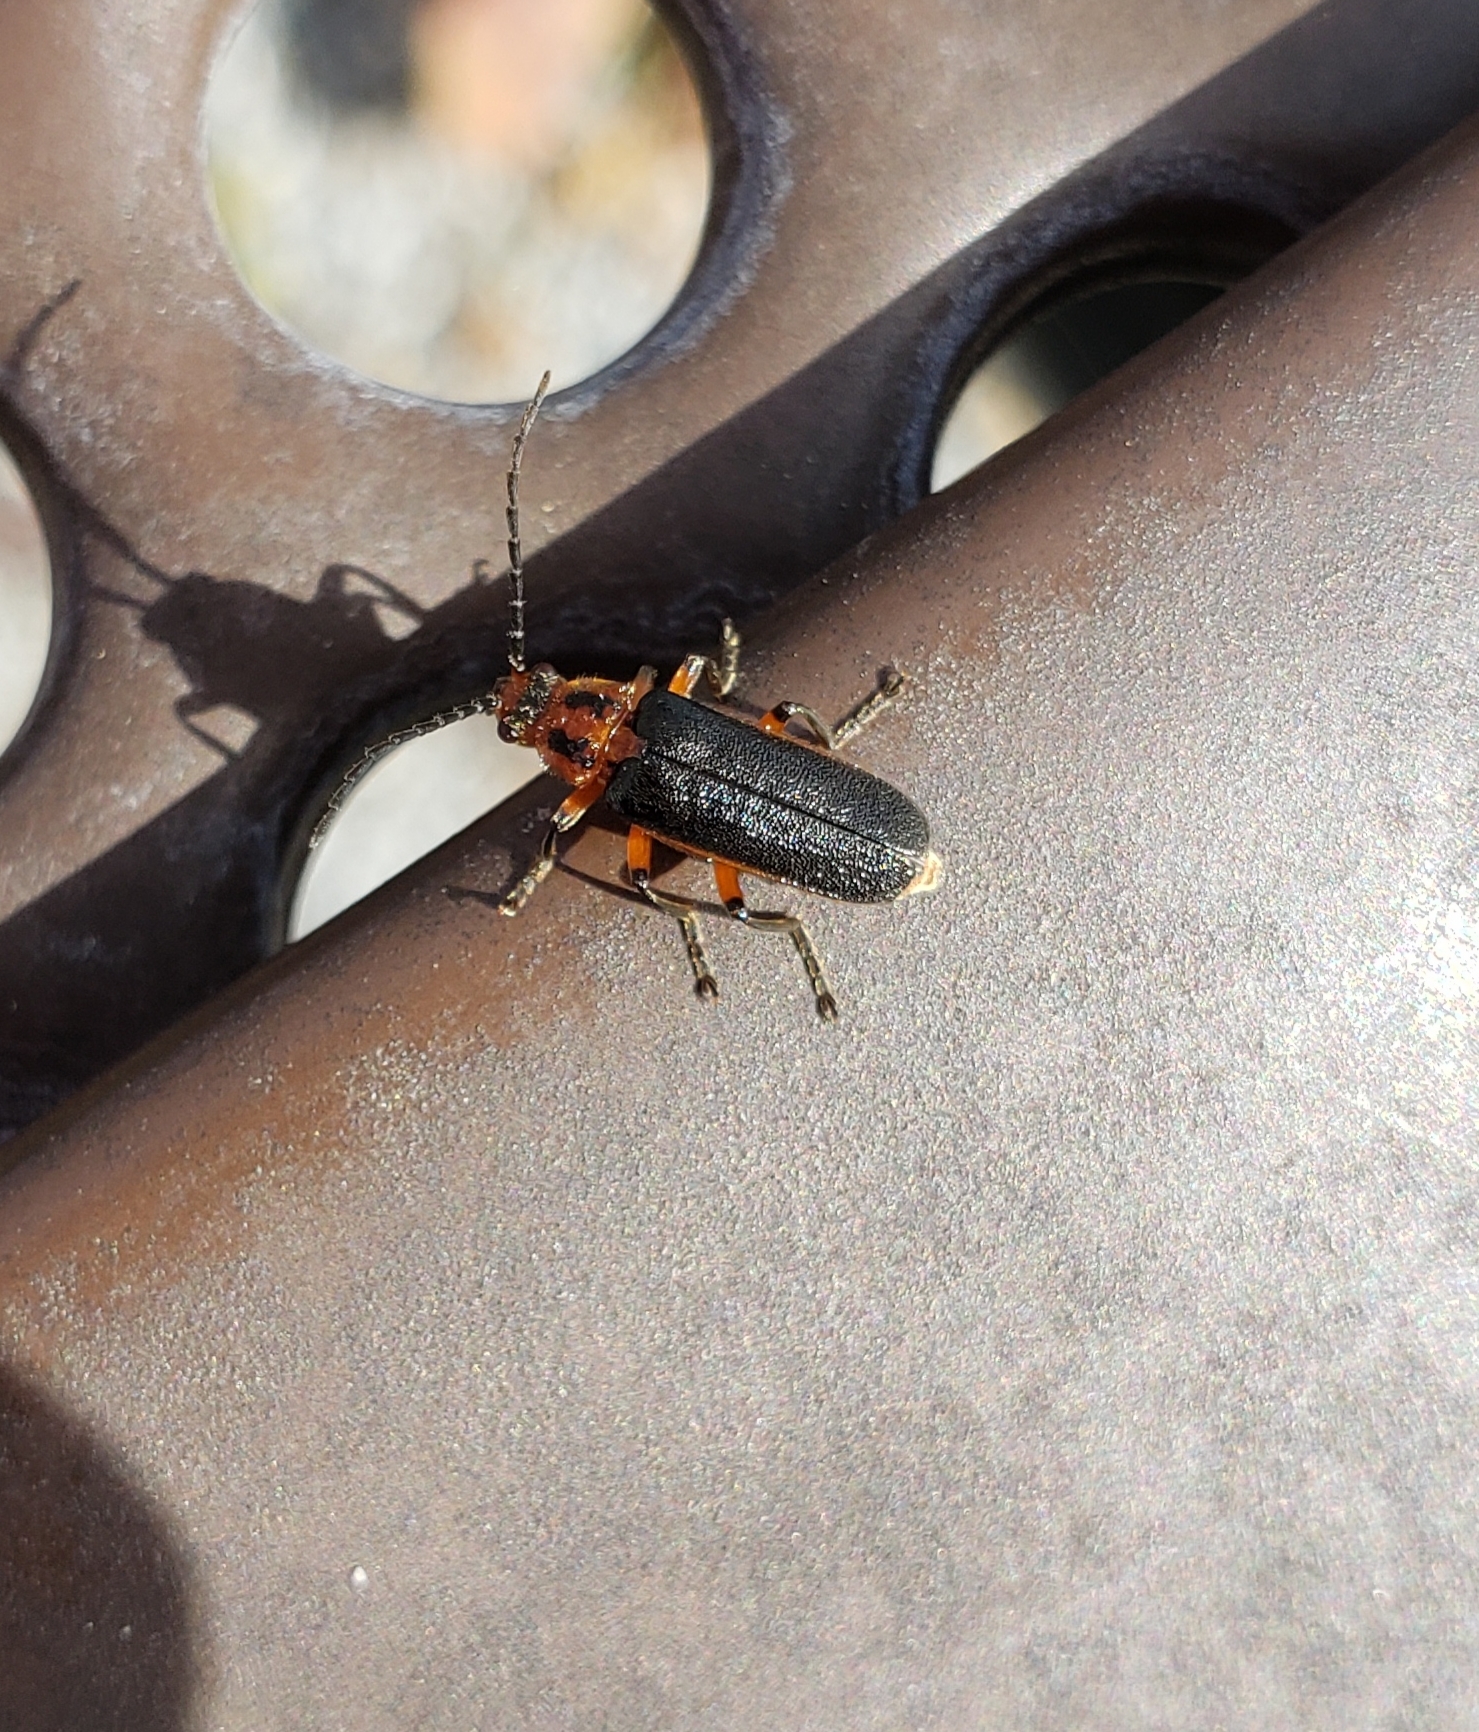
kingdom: Animalia
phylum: Arthropoda
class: Insecta
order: Coleoptera
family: Cantharidae
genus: Atalantycha
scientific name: Atalantycha bilineata
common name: Two-lined leatherwing
